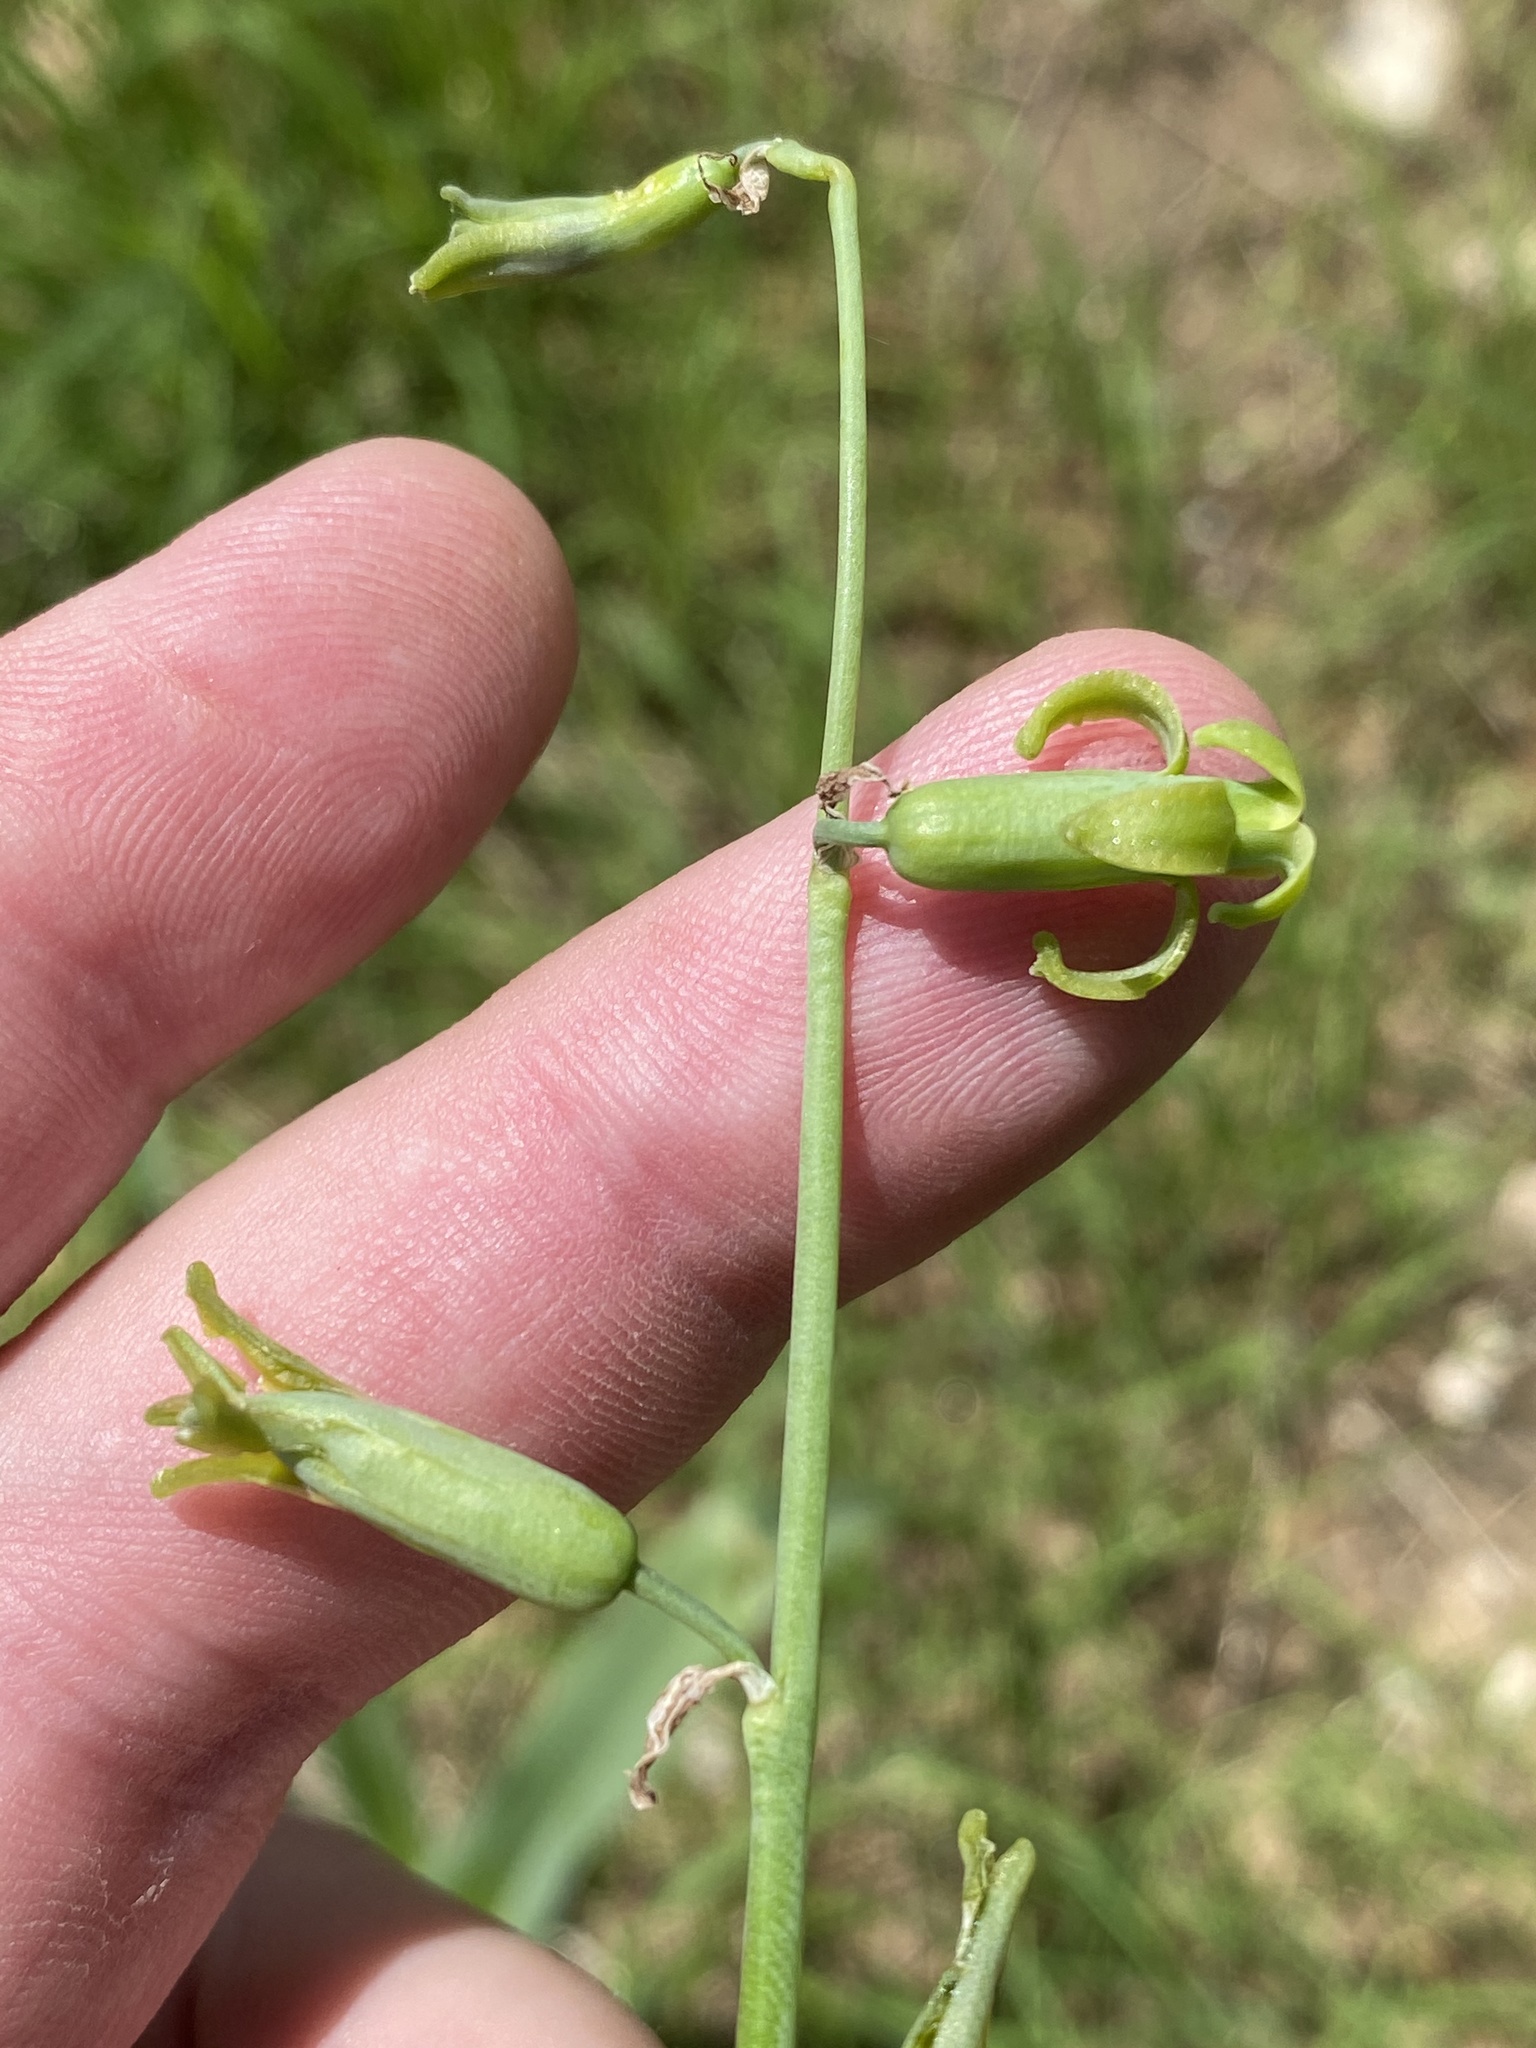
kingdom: Plantae
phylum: Tracheophyta
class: Liliopsida
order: Asparagales
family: Asparagaceae
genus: Dipcadi
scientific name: Dipcadi bakerianum
